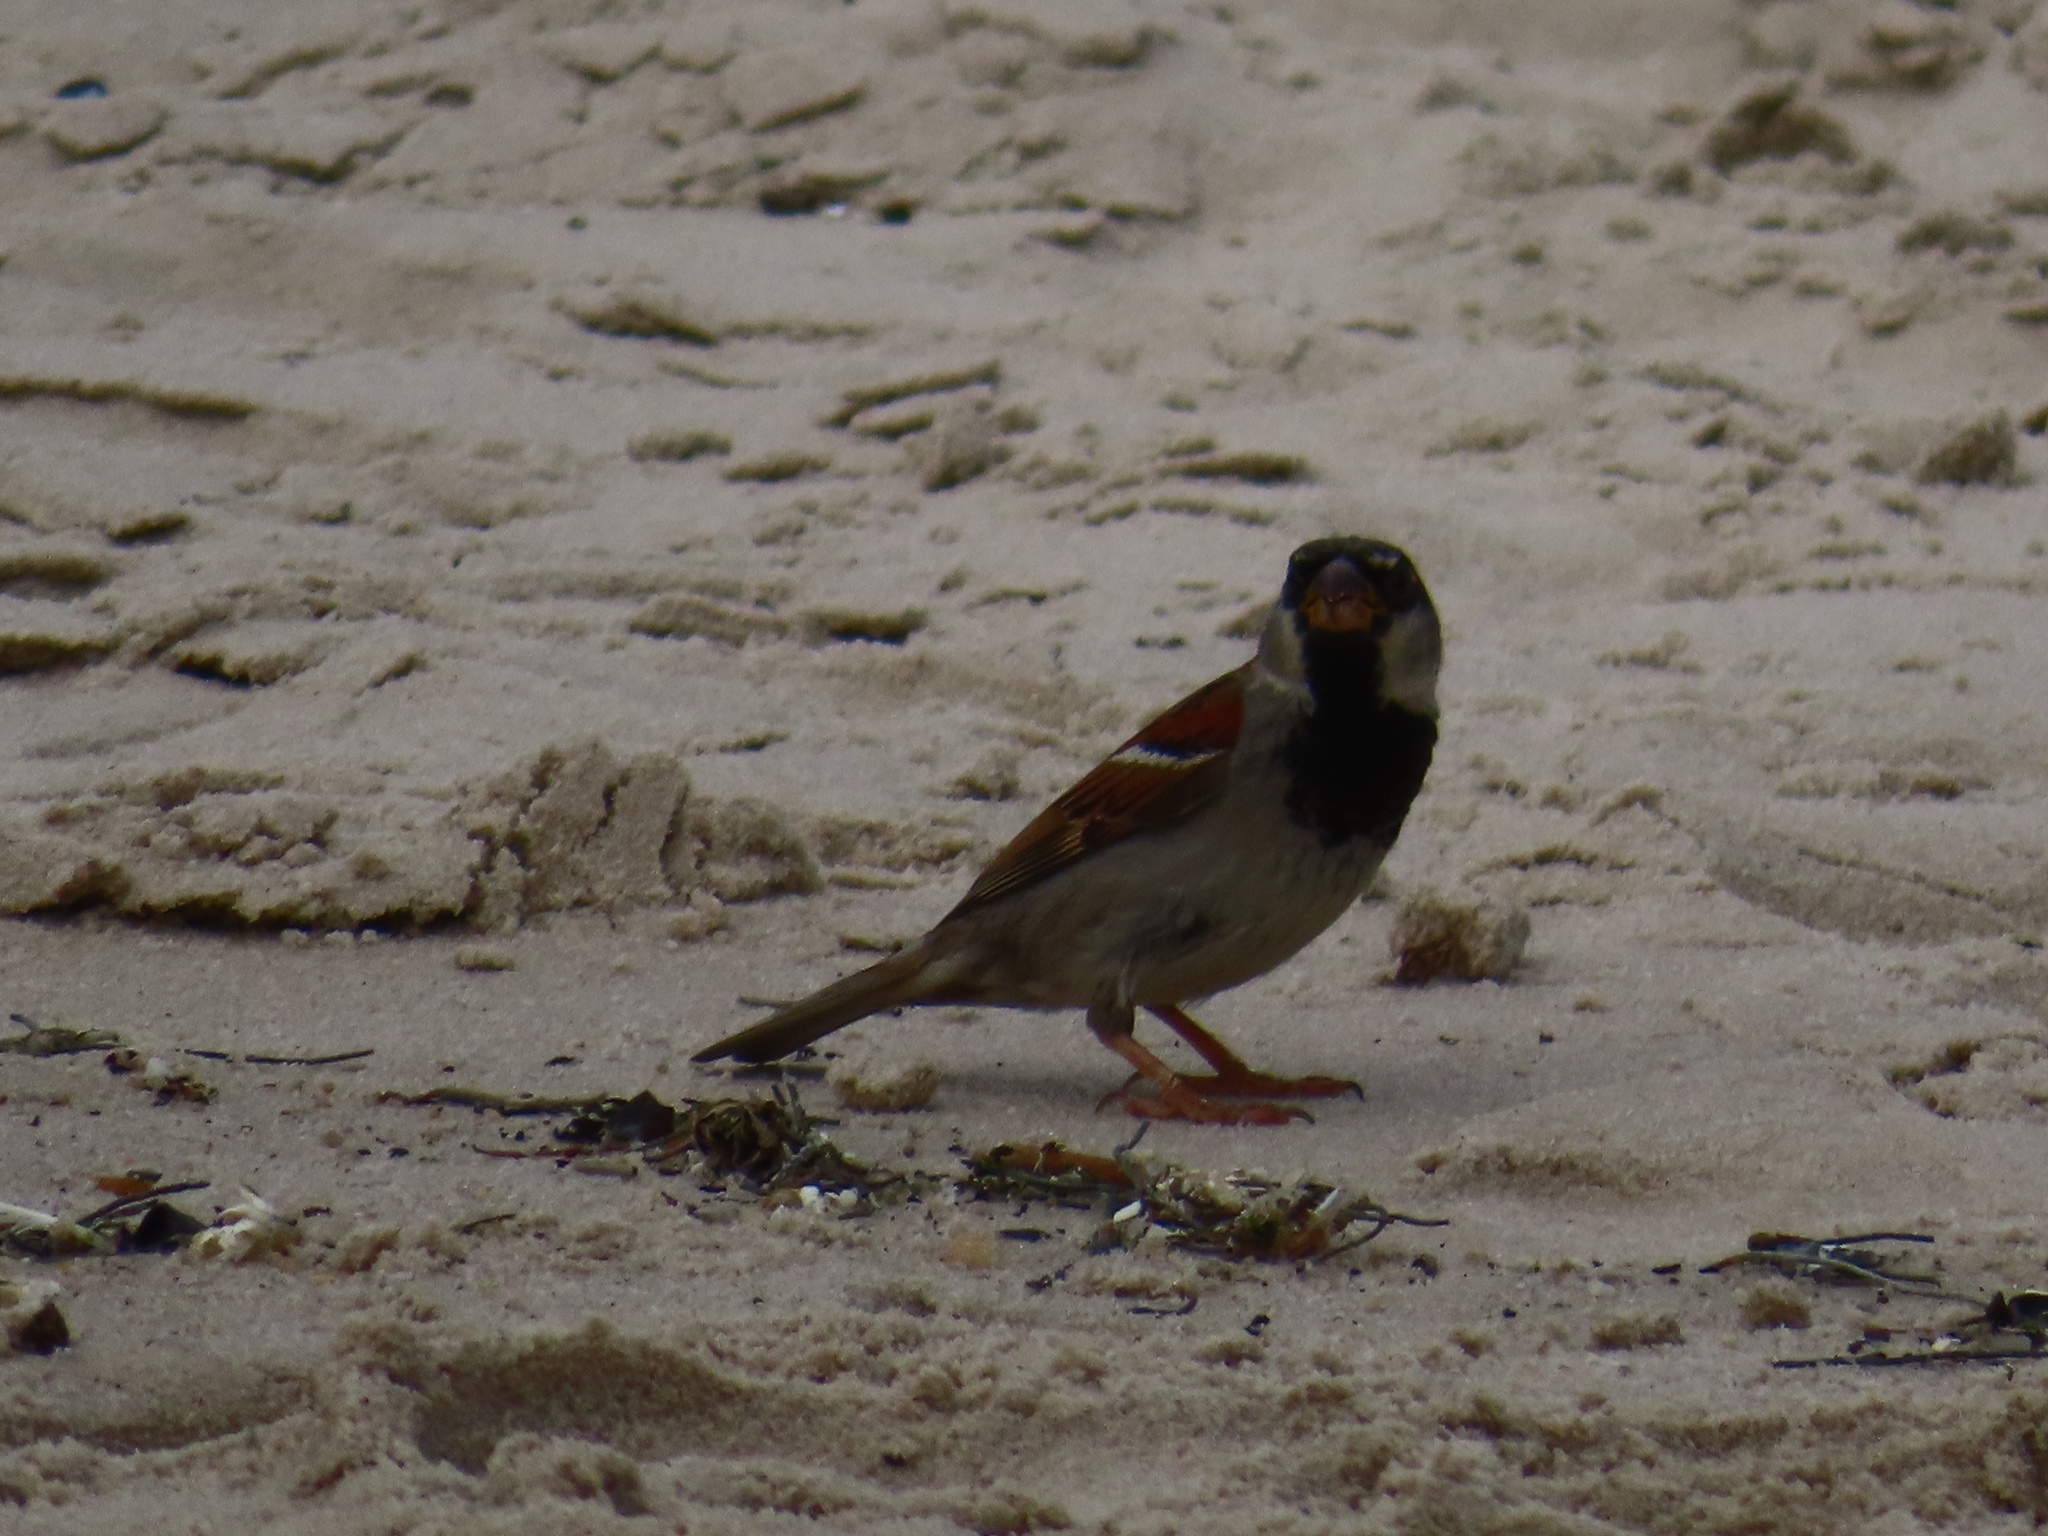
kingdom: Animalia
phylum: Chordata
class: Aves
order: Passeriformes
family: Passeridae
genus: Passer
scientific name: Passer domesticus
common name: House sparrow
